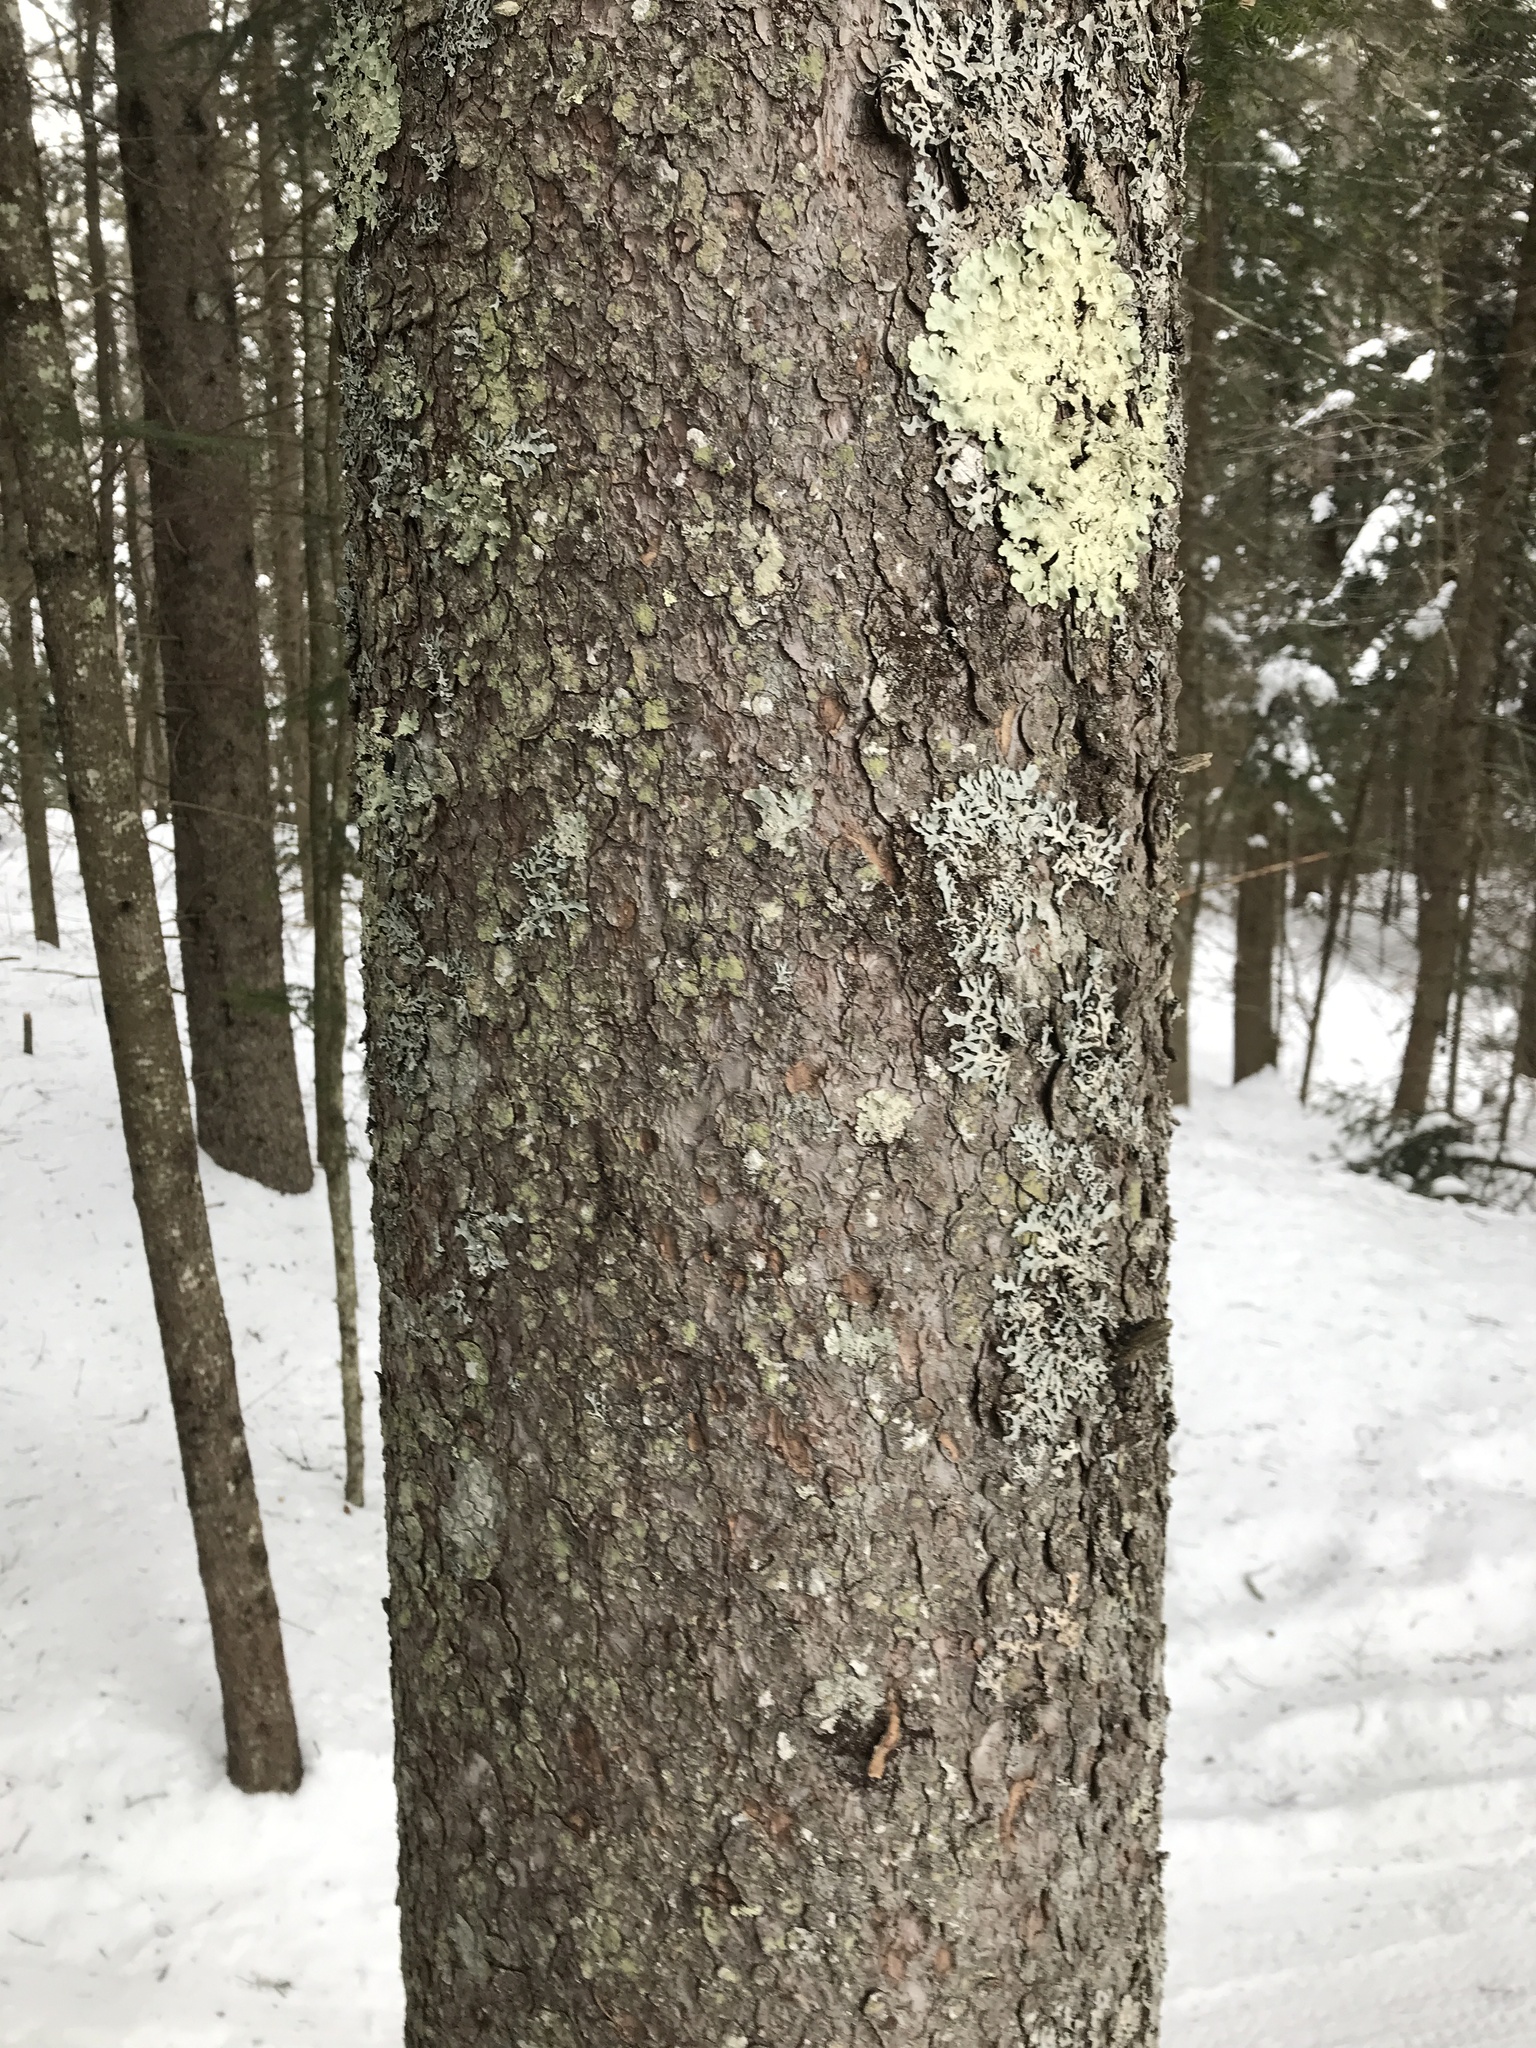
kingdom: Plantae
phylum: Tracheophyta
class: Pinopsida
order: Pinales
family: Pinaceae
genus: Picea
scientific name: Picea rubens
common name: Red spruce
